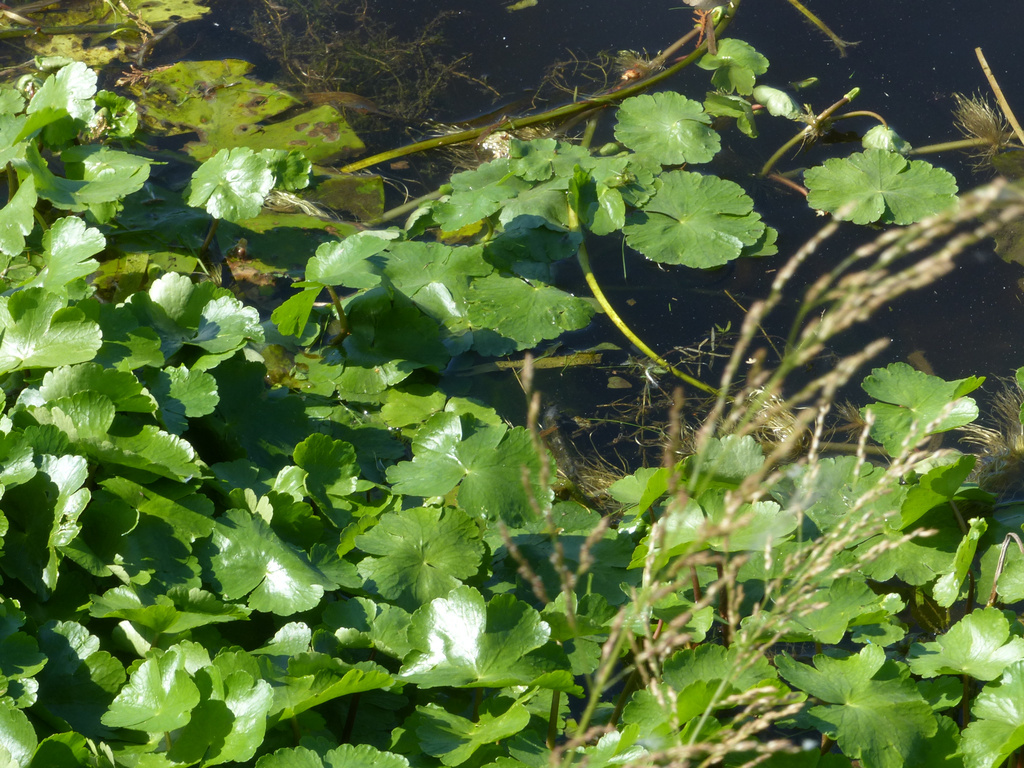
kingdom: Plantae
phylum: Tracheophyta
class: Magnoliopsida
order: Apiales
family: Araliaceae
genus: Hydrocotyle
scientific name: Hydrocotyle ranunculoides
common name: Floating pennywort
